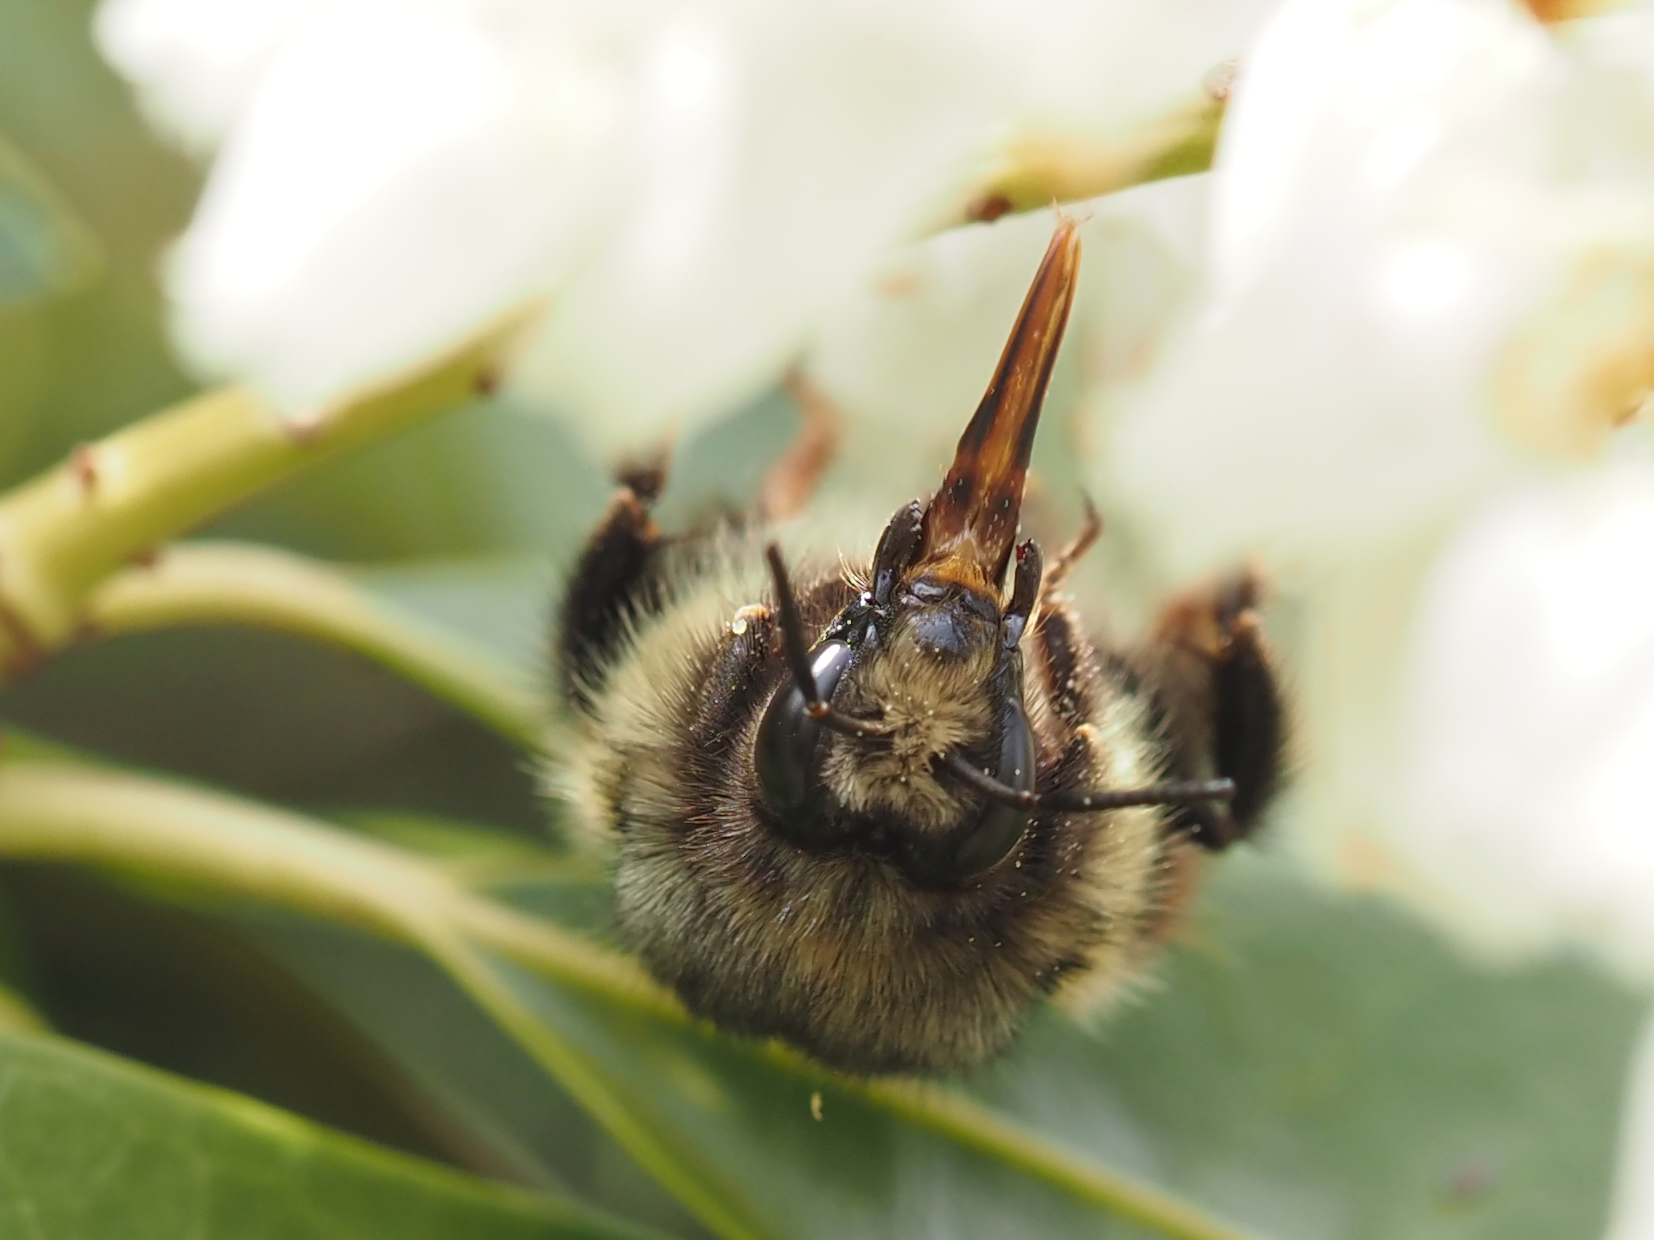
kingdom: Animalia
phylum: Arthropoda
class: Insecta
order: Hymenoptera
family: Apidae
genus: Bombus
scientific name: Bombus melanopygus
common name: Black tail bumble bee
